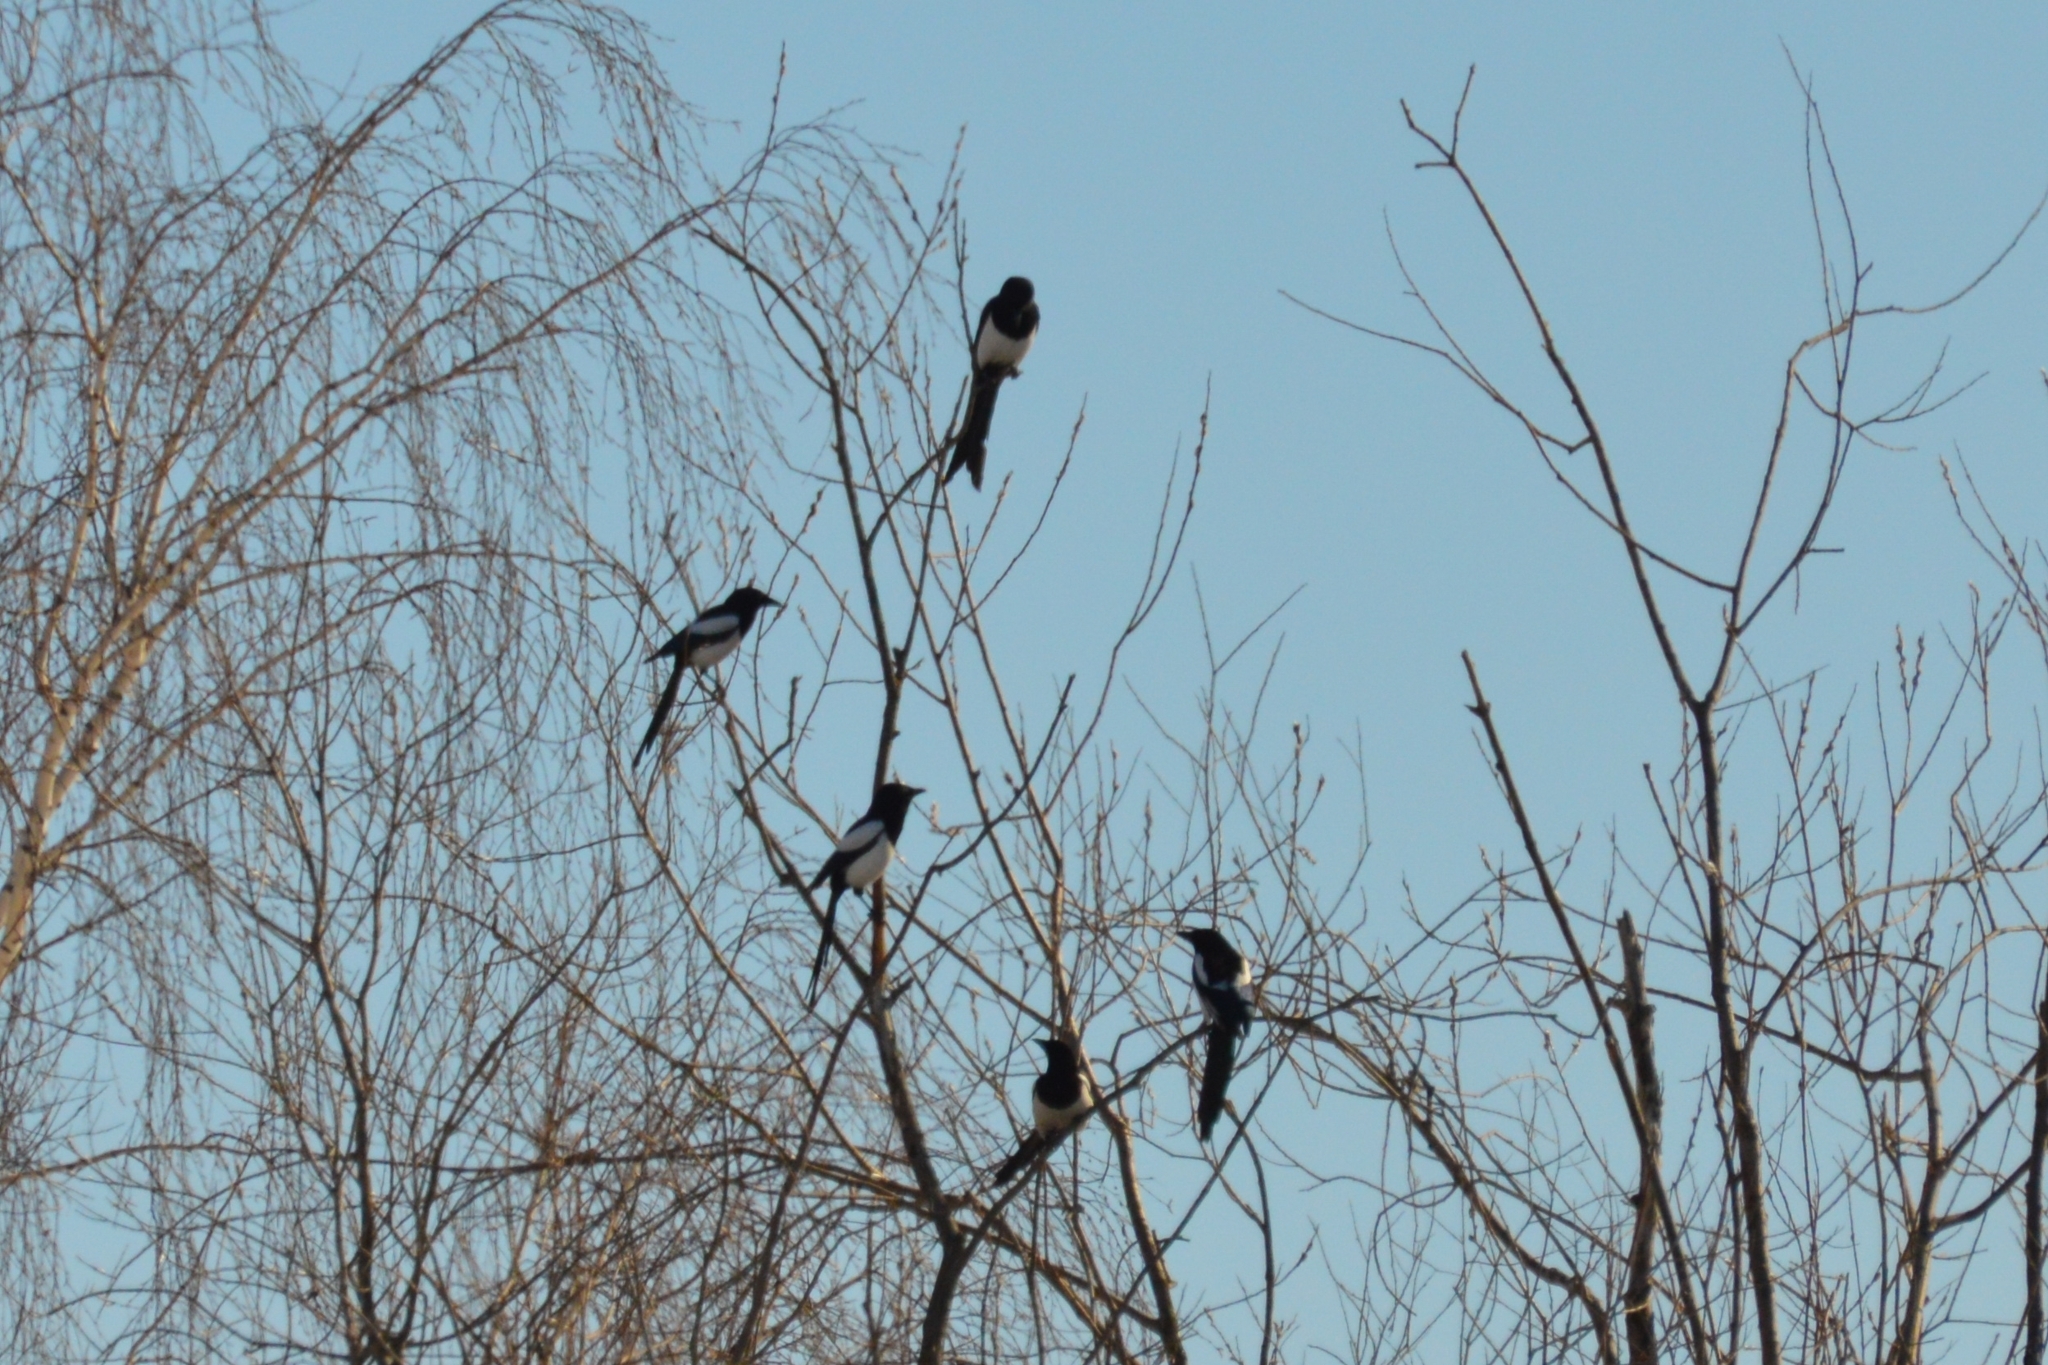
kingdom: Animalia
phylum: Chordata
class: Aves
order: Passeriformes
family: Corvidae
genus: Pica
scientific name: Pica pica
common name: Eurasian magpie
